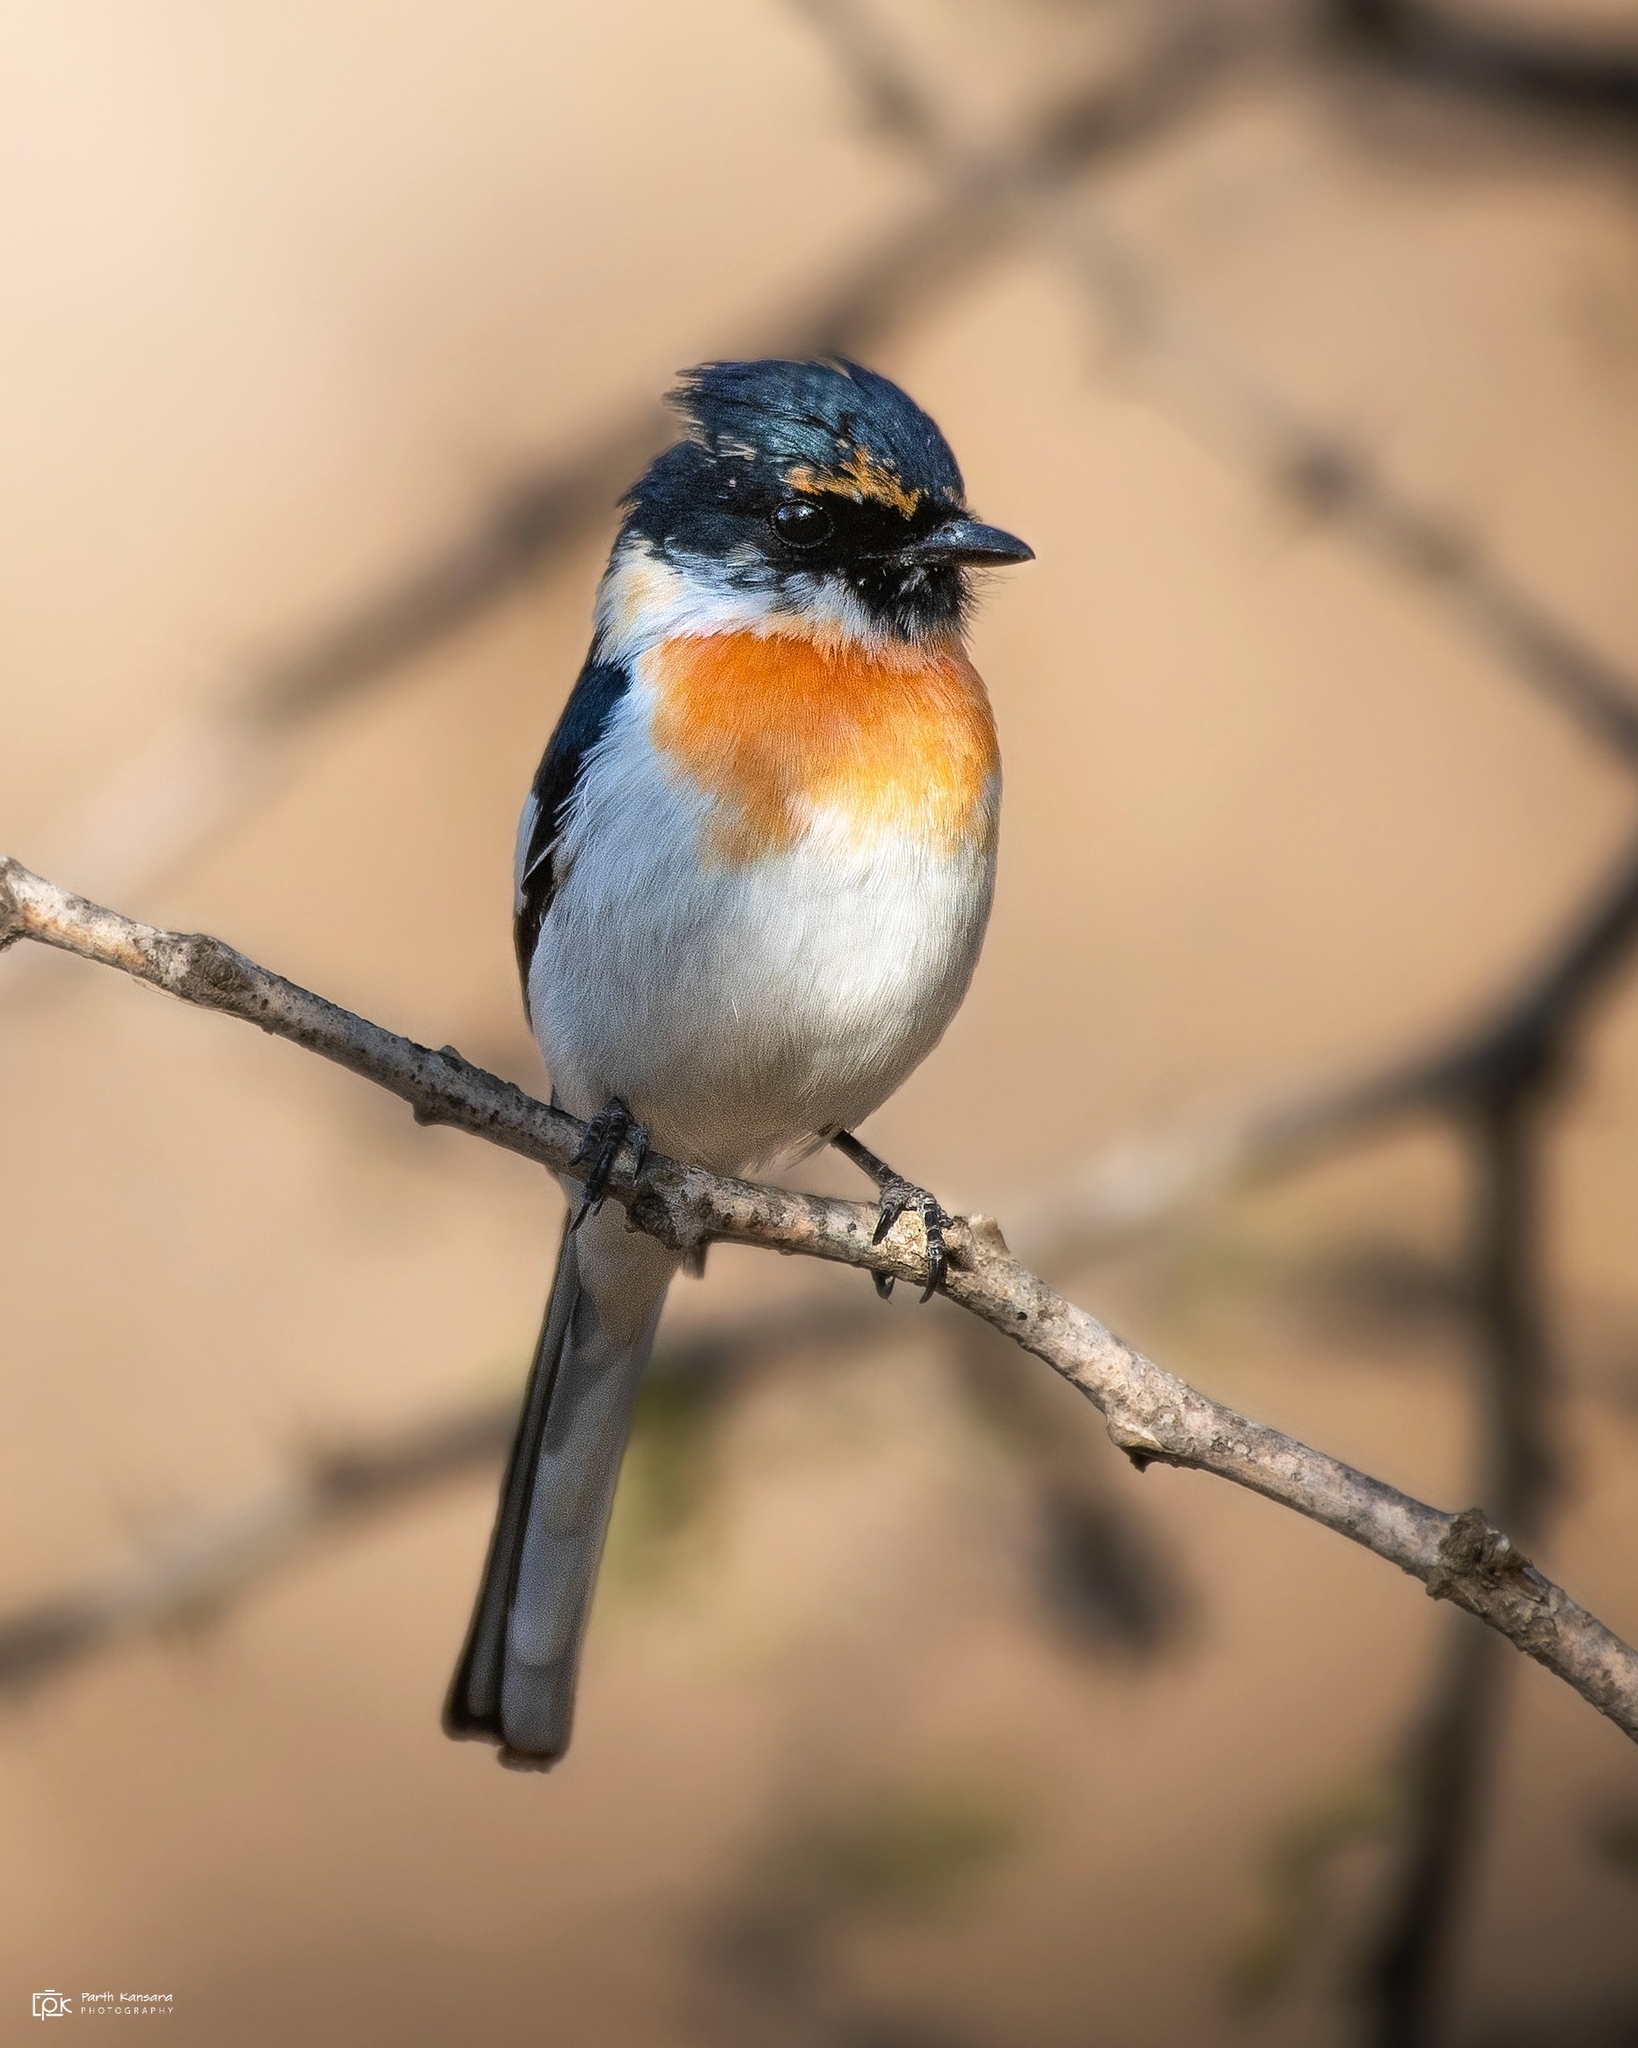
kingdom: Animalia
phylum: Chordata
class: Aves
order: Passeriformes
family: Campephagidae
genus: Pericrocotus
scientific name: Pericrocotus erythropygius
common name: White-bellied minivet
